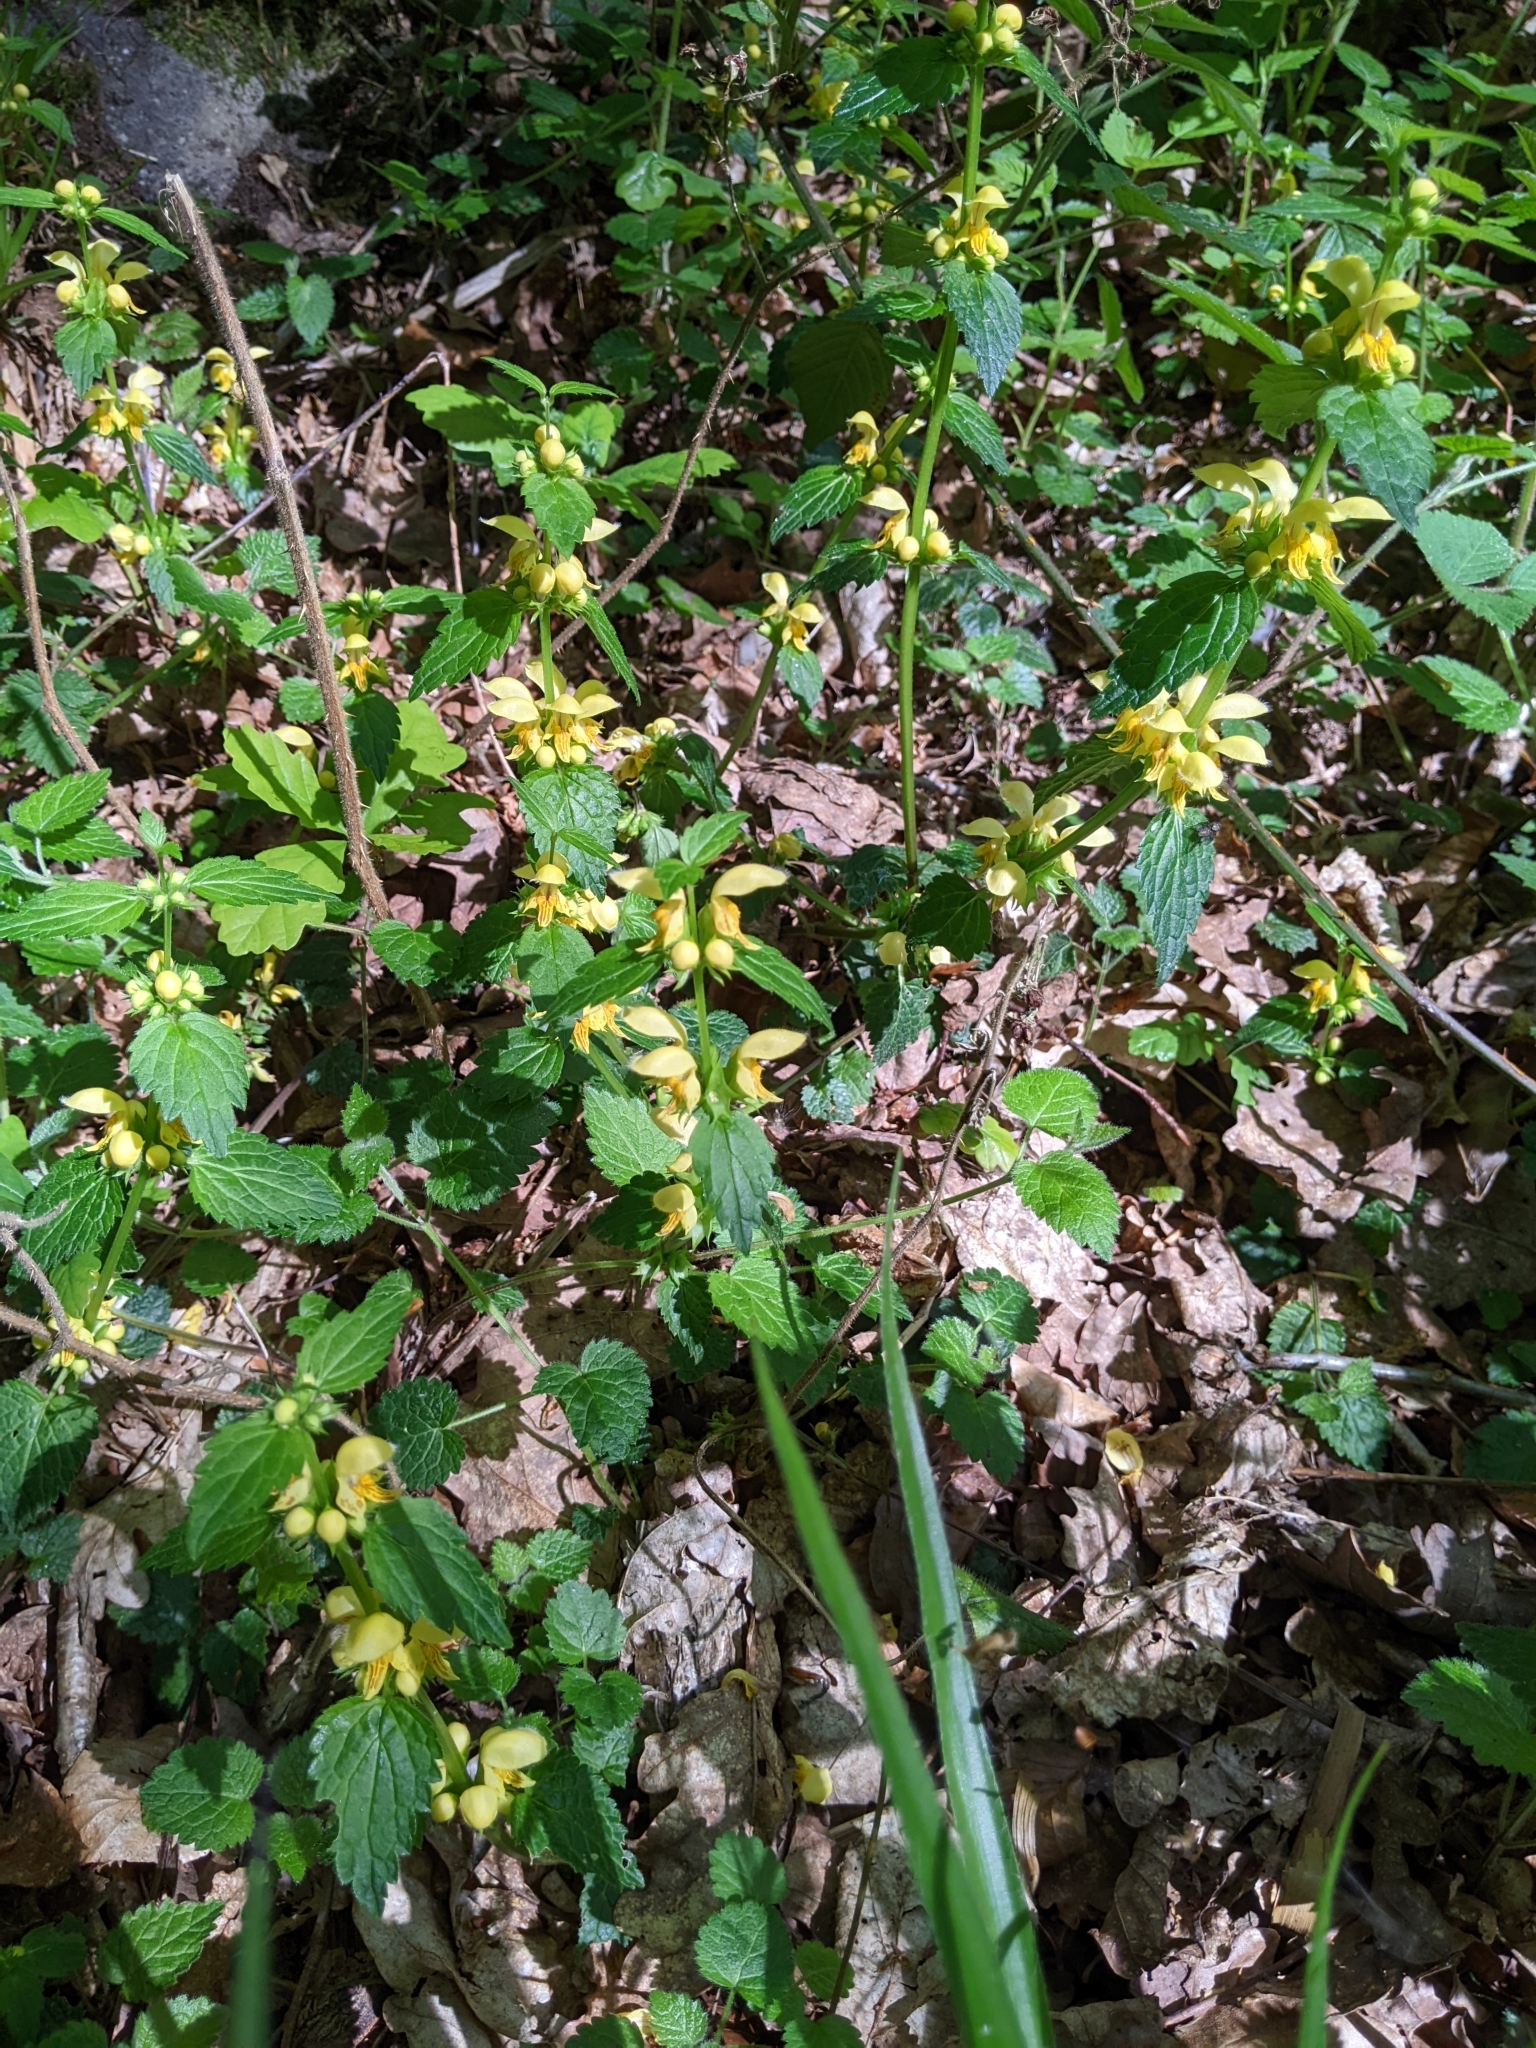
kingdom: Plantae
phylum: Tracheophyta
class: Magnoliopsida
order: Lamiales
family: Lamiaceae
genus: Lamium
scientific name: Lamium galeobdolon
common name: Yellow archangel
